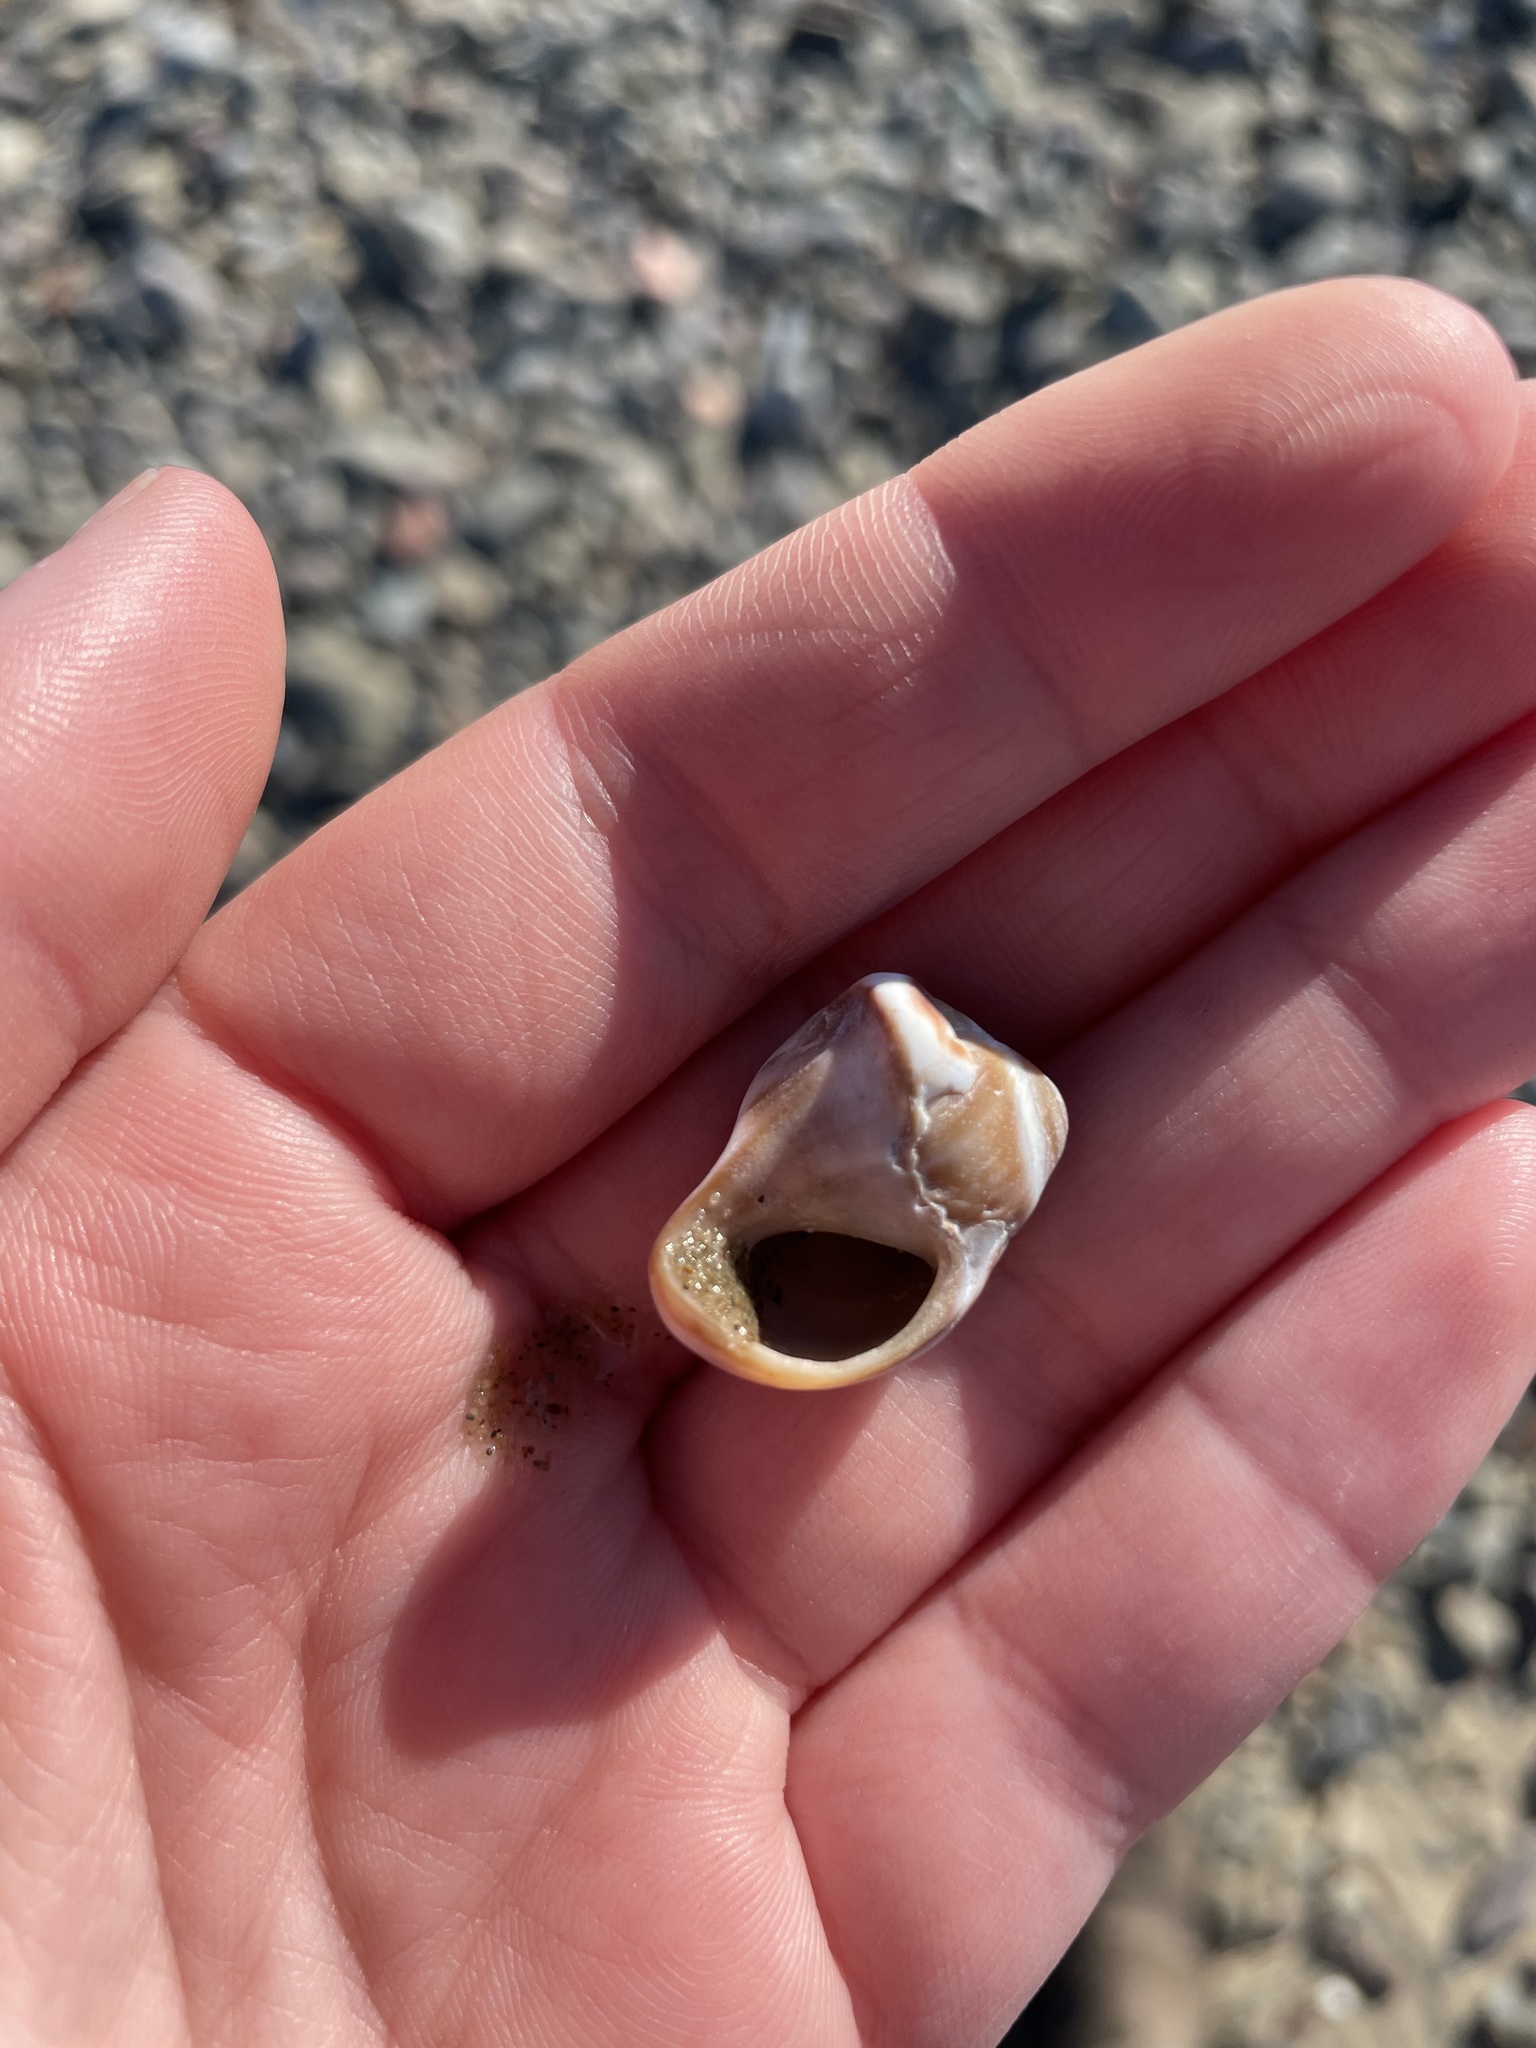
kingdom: Animalia
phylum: Mollusca
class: Gastropoda
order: Littorinimorpha
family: Naticidae
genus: Euspira
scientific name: Euspira heros
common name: Common northern moonsnail
